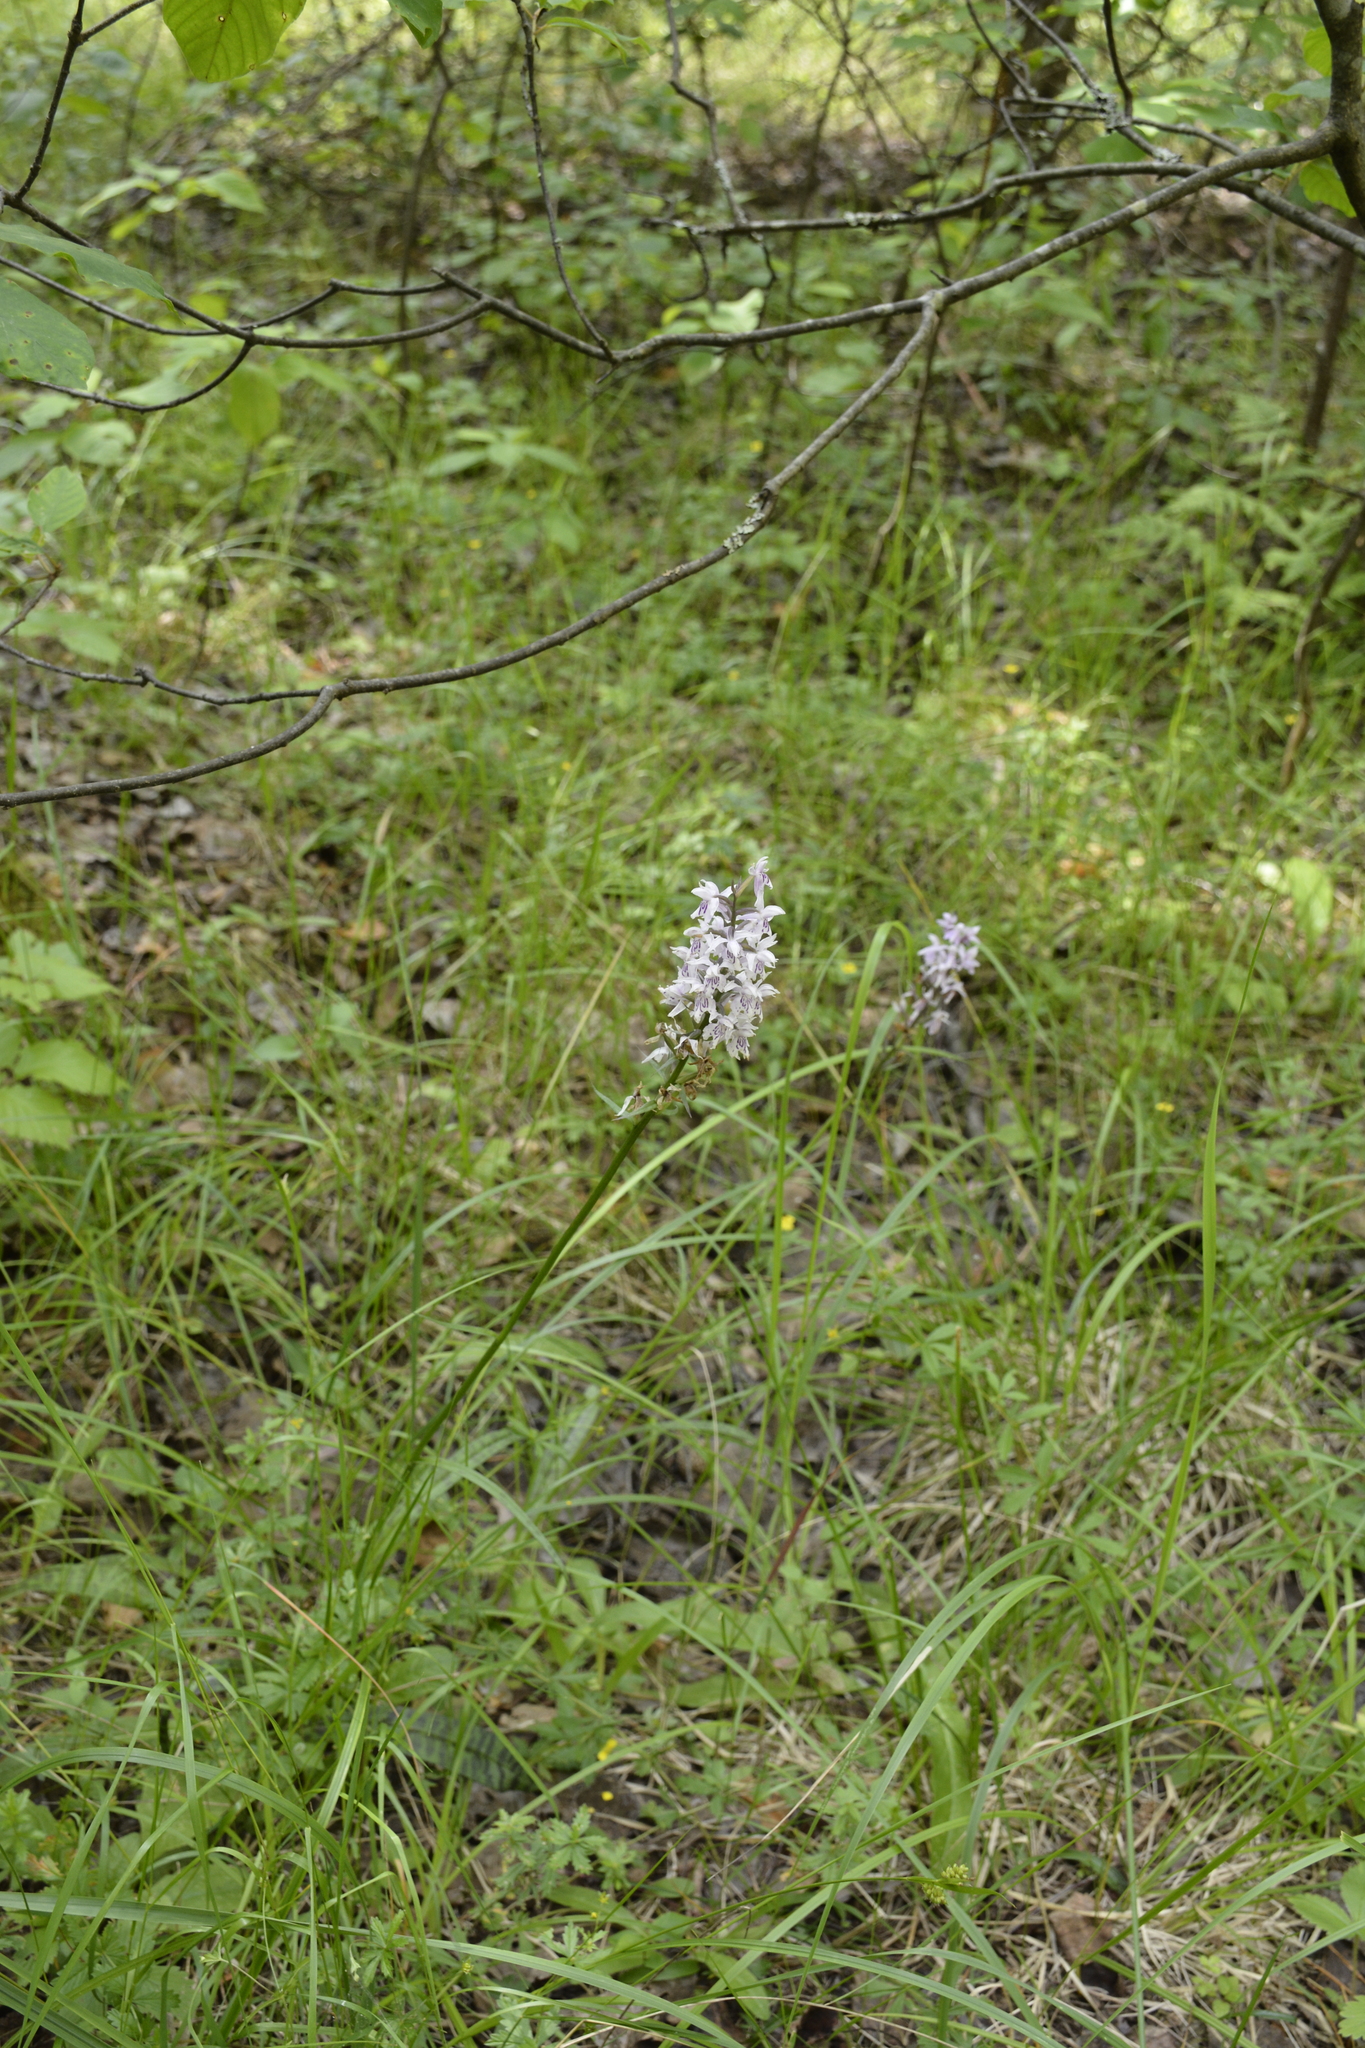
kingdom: Plantae
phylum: Tracheophyta
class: Liliopsida
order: Asparagales
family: Orchidaceae
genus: Dactylorhiza
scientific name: Dactylorhiza maculata
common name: Heath spotted-orchid
